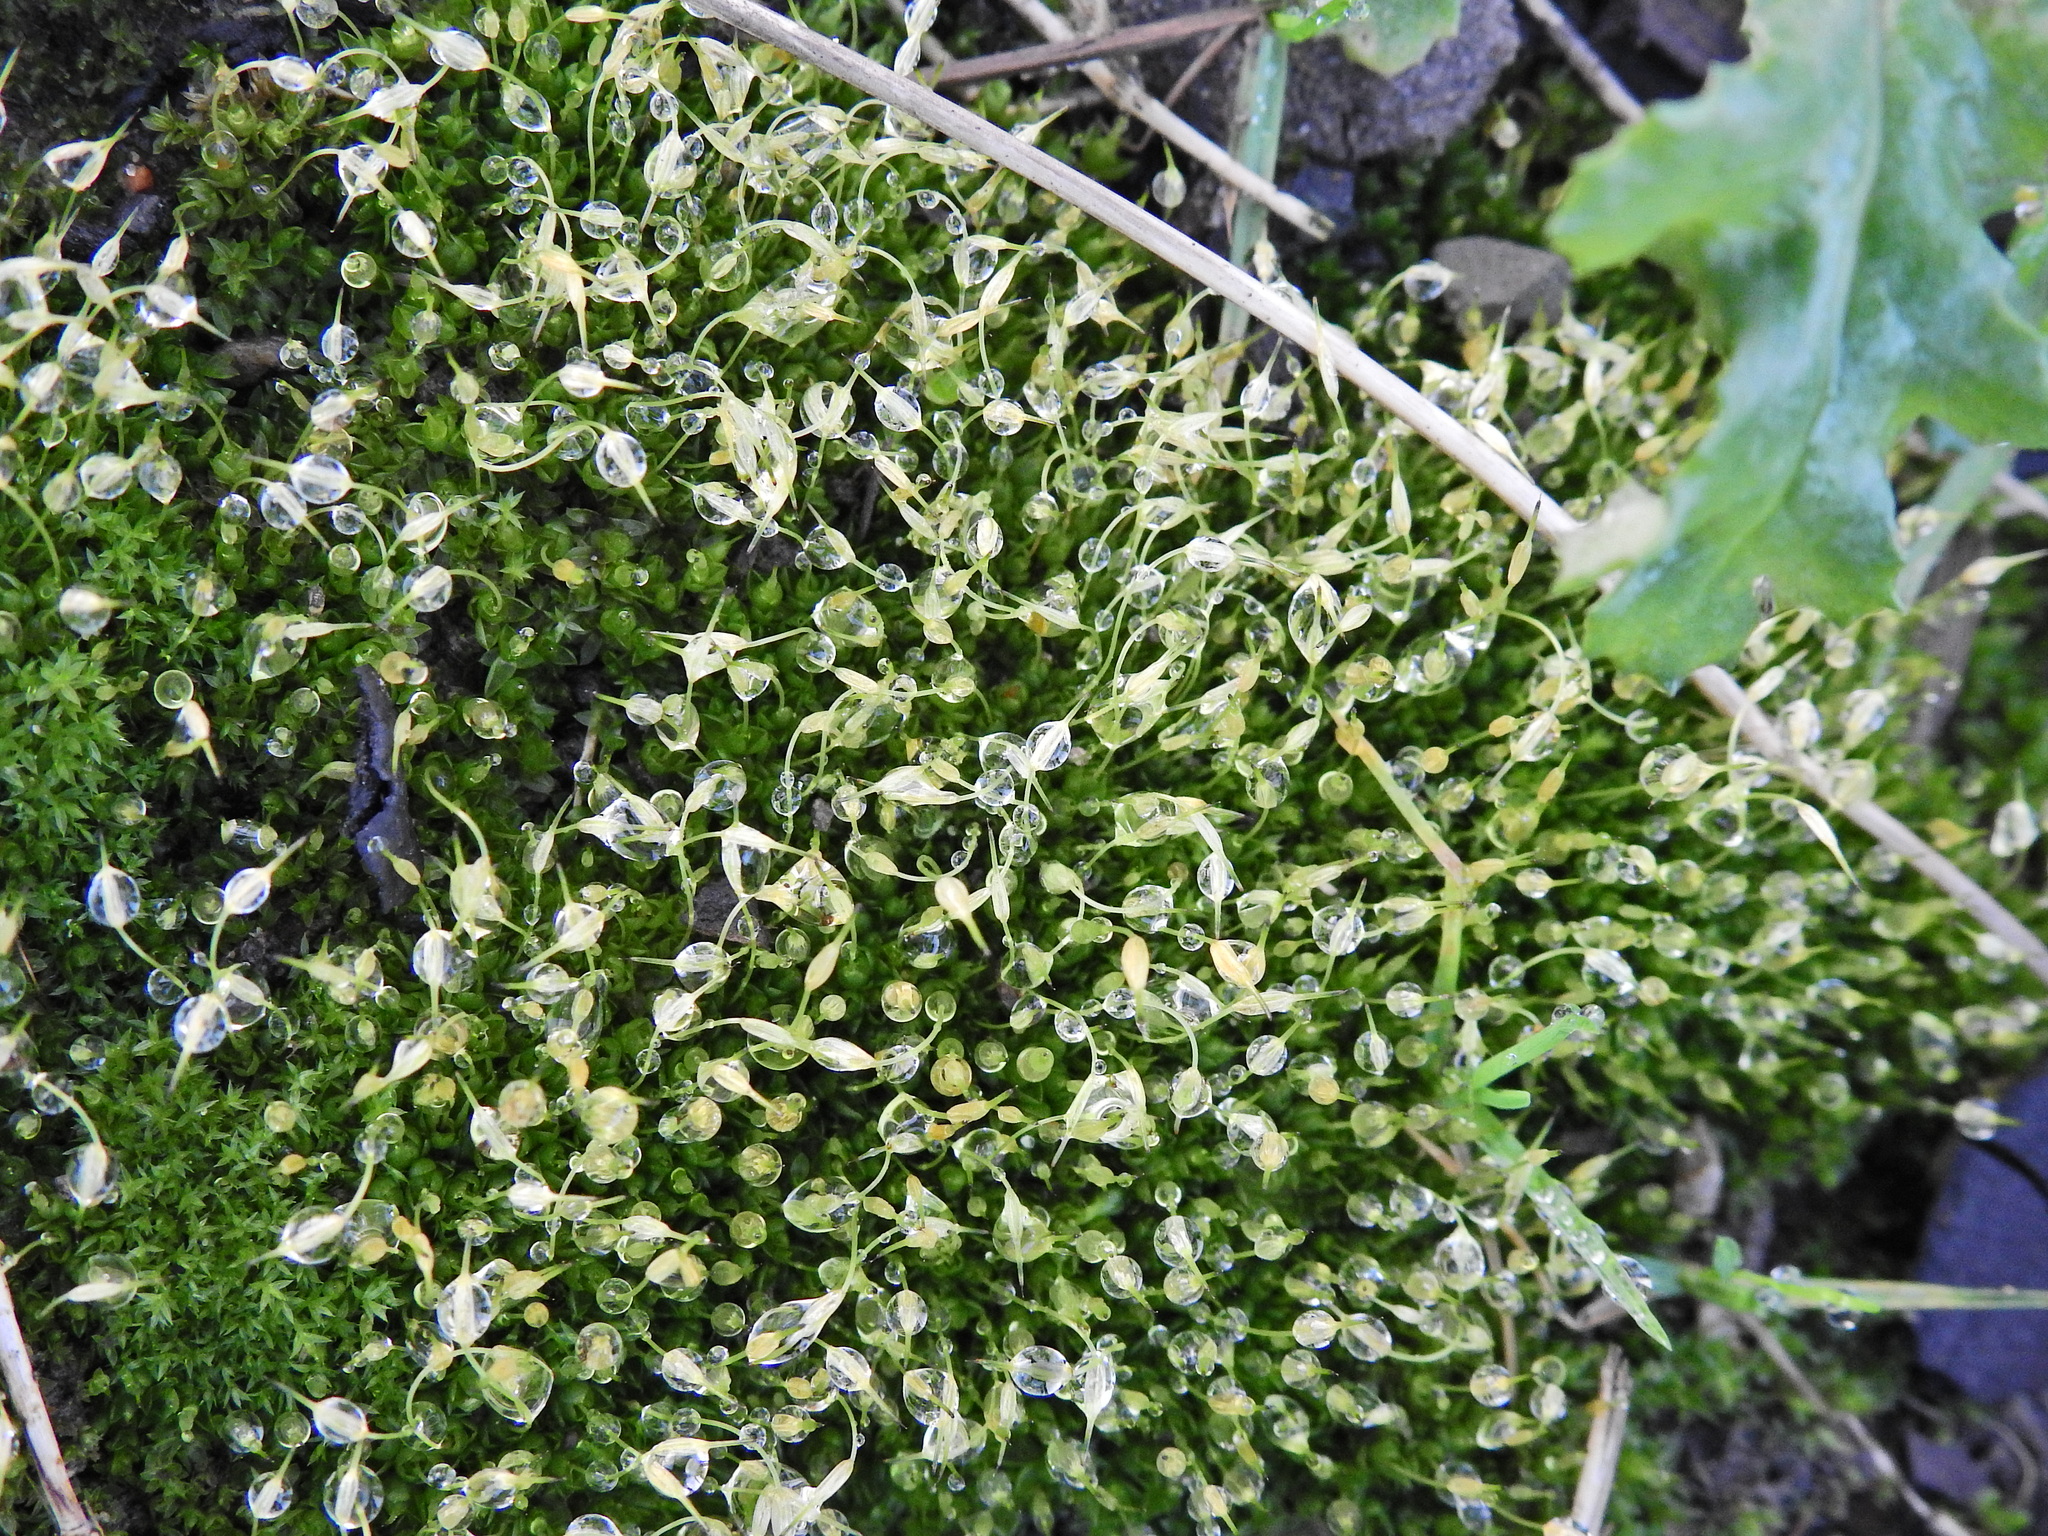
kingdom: Plantae
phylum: Bryophyta
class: Bryopsida
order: Funariales
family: Funariaceae
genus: Funaria
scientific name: Funaria hygrometrica
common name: Common cord moss
